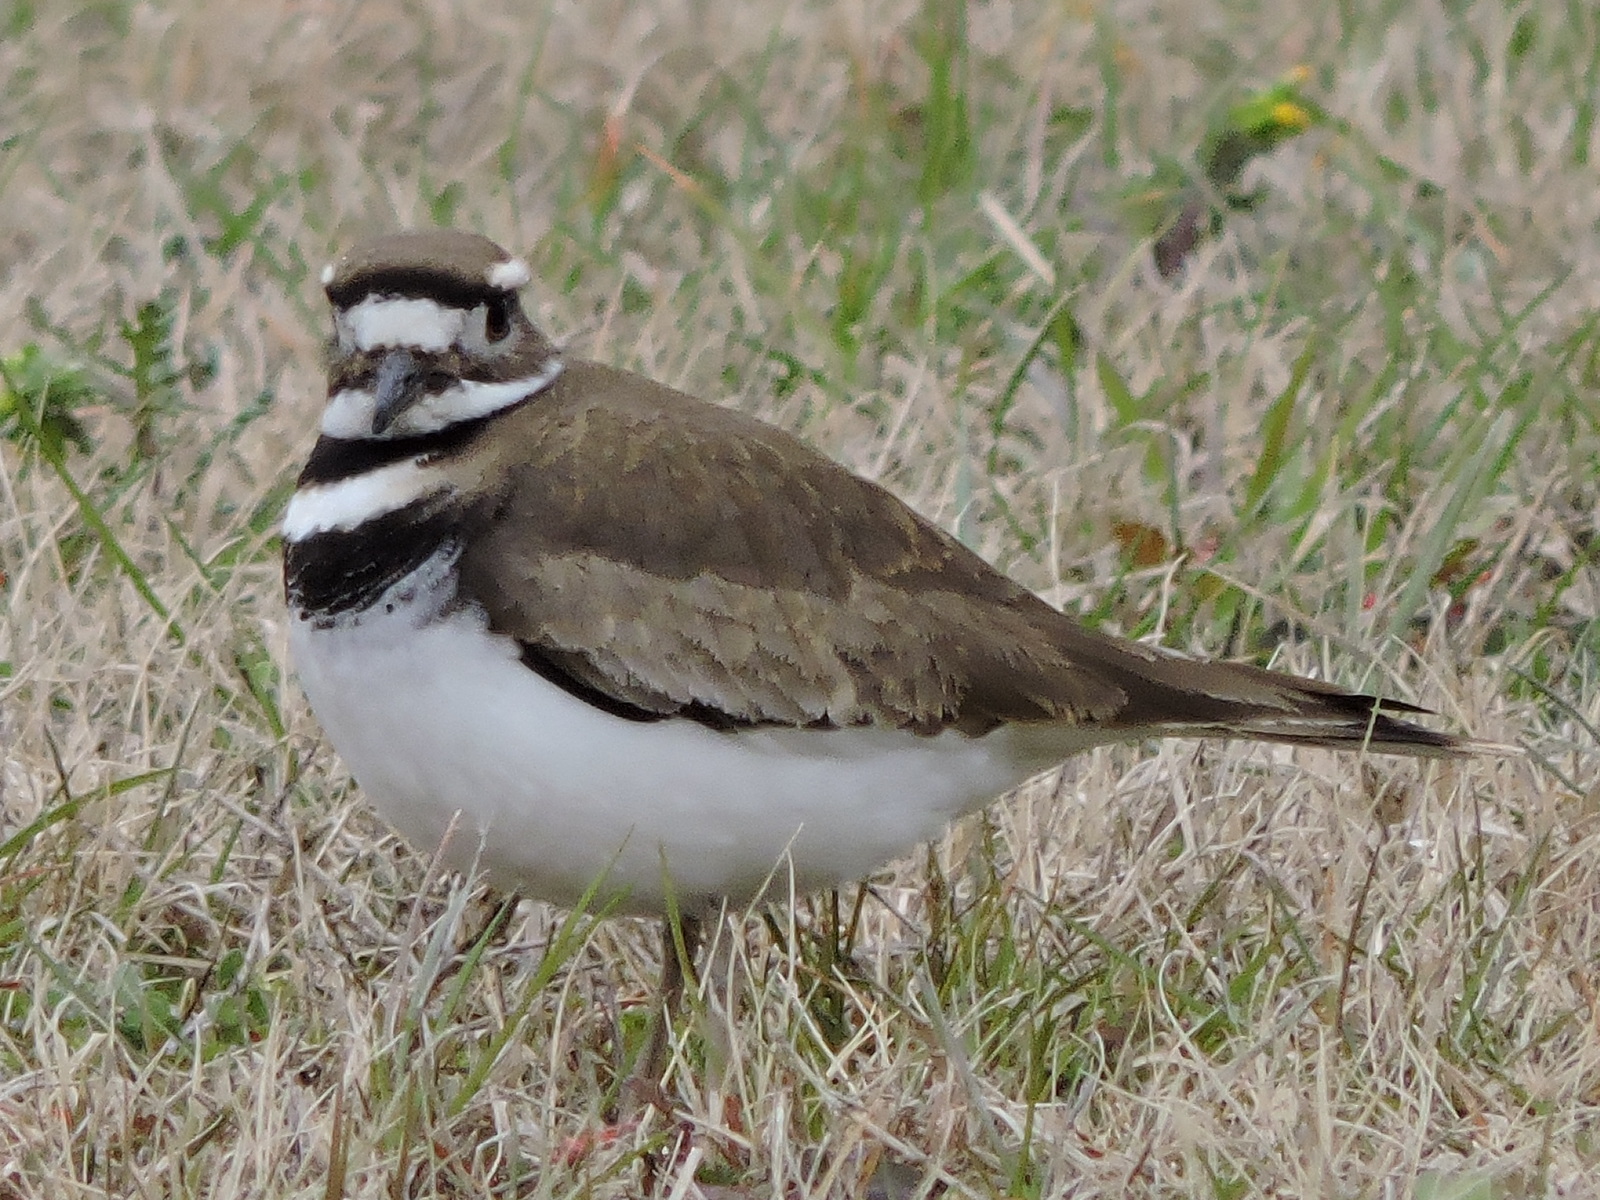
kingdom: Animalia
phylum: Chordata
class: Aves
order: Charadriiformes
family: Charadriidae
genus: Charadrius
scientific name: Charadrius vociferus
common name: Killdeer
